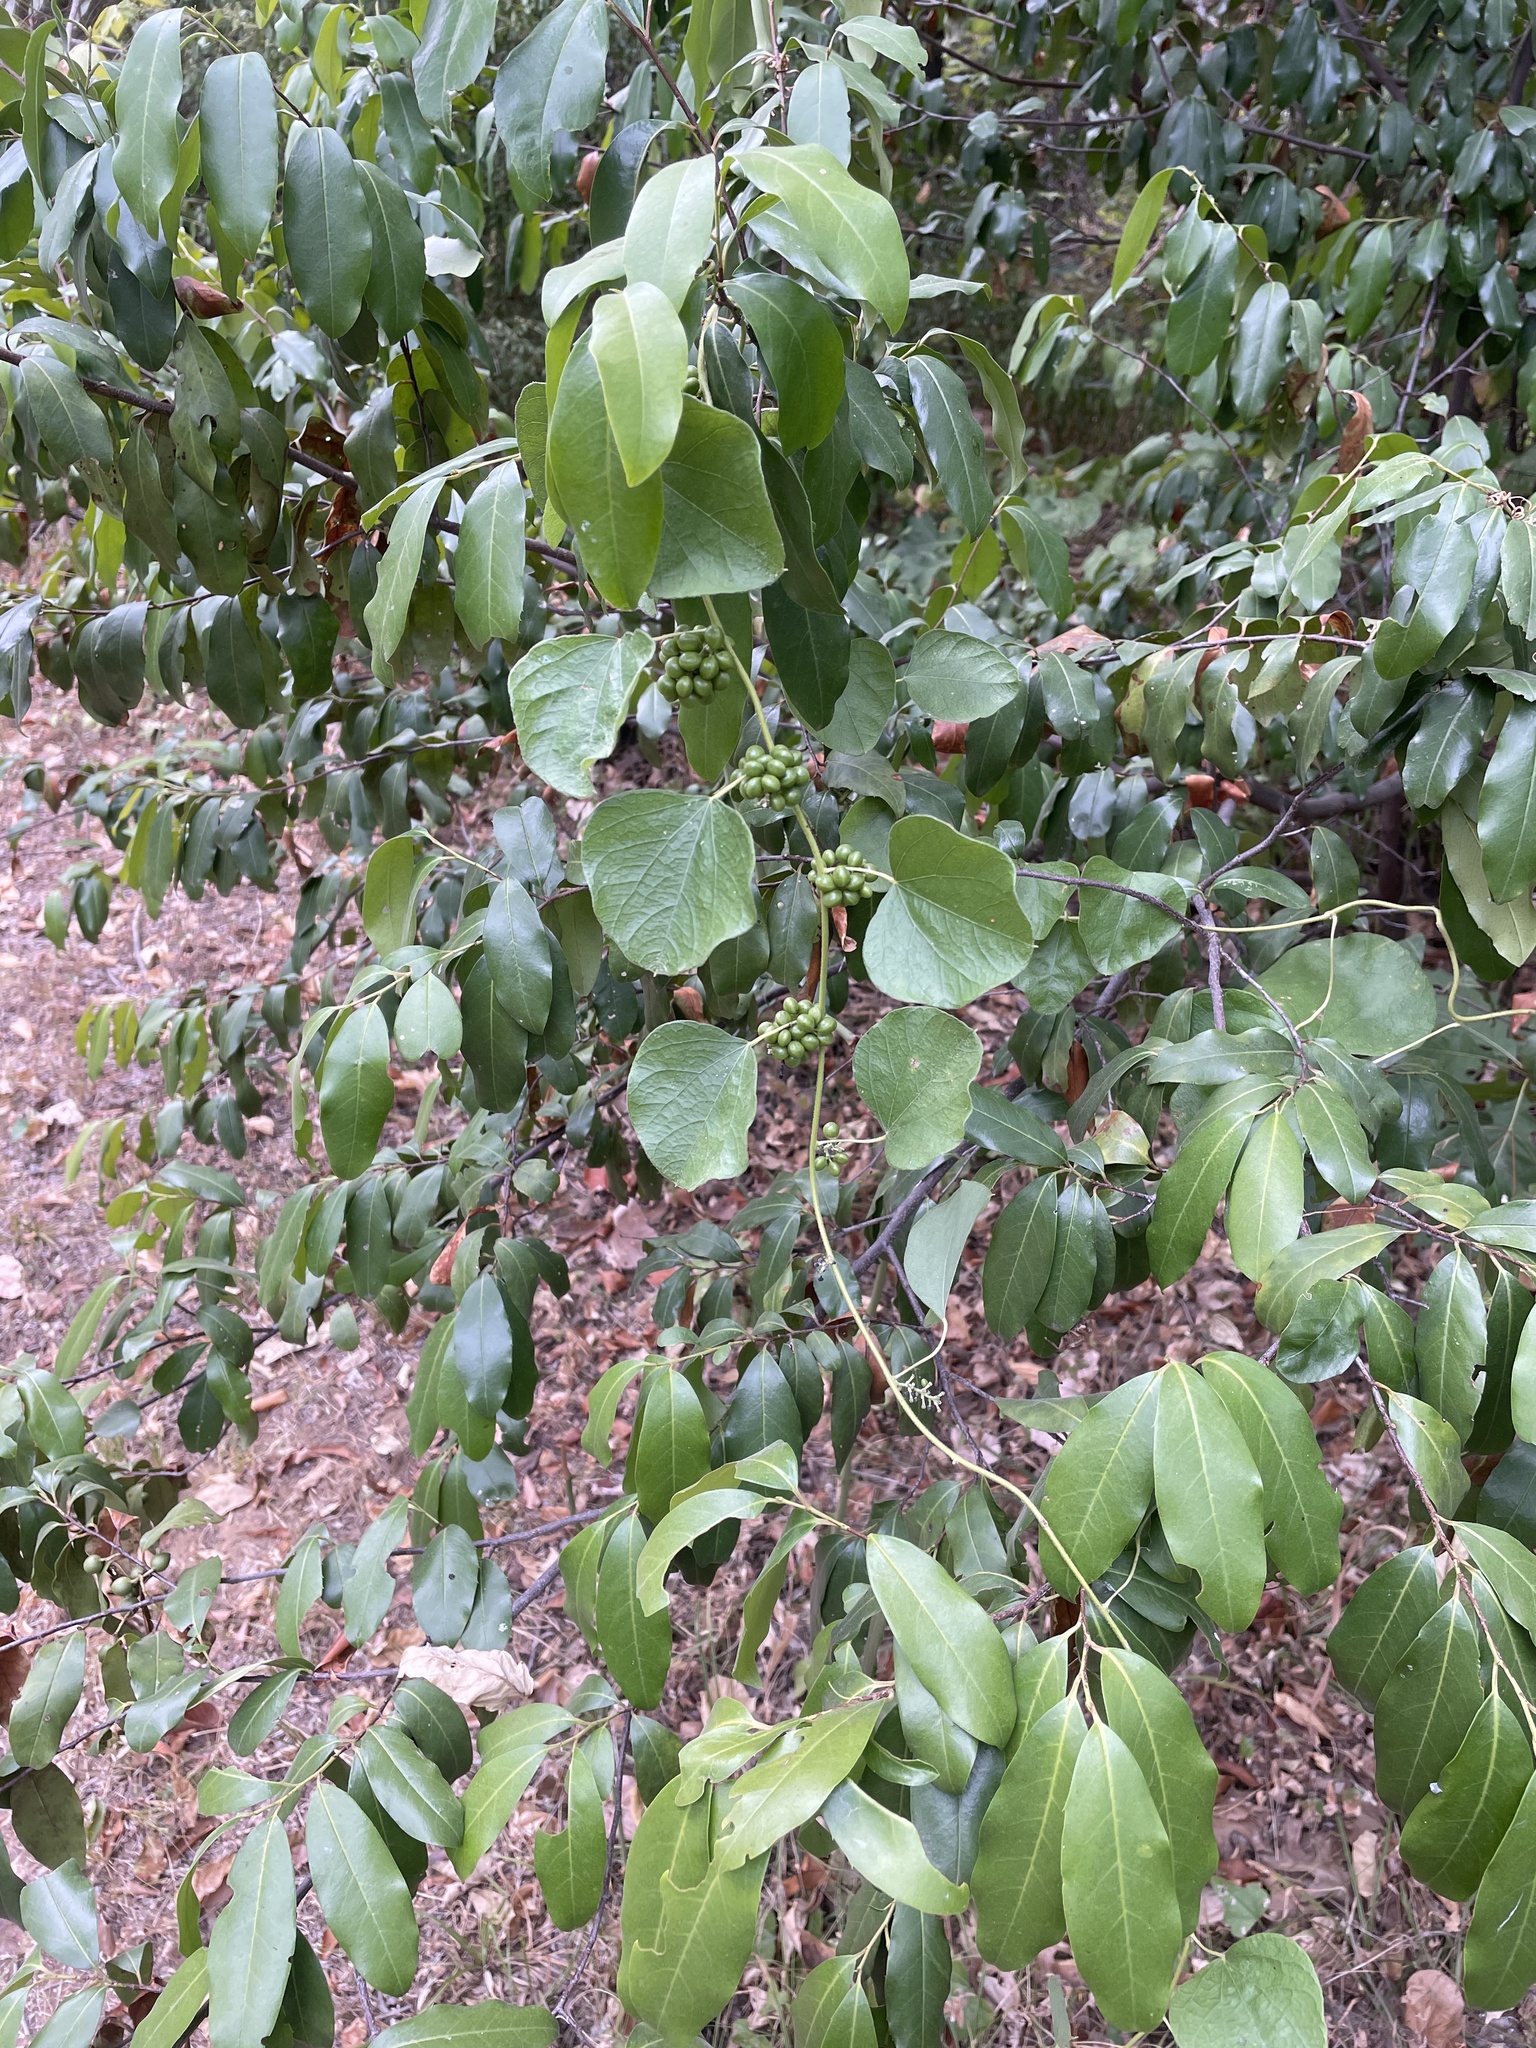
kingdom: Plantae
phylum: Tracheophyta
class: Magnoliopsida
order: Ranunculales
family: Menispermaceae
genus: Cocculus
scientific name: Cocculus carolinus
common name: Carolina moonseed
